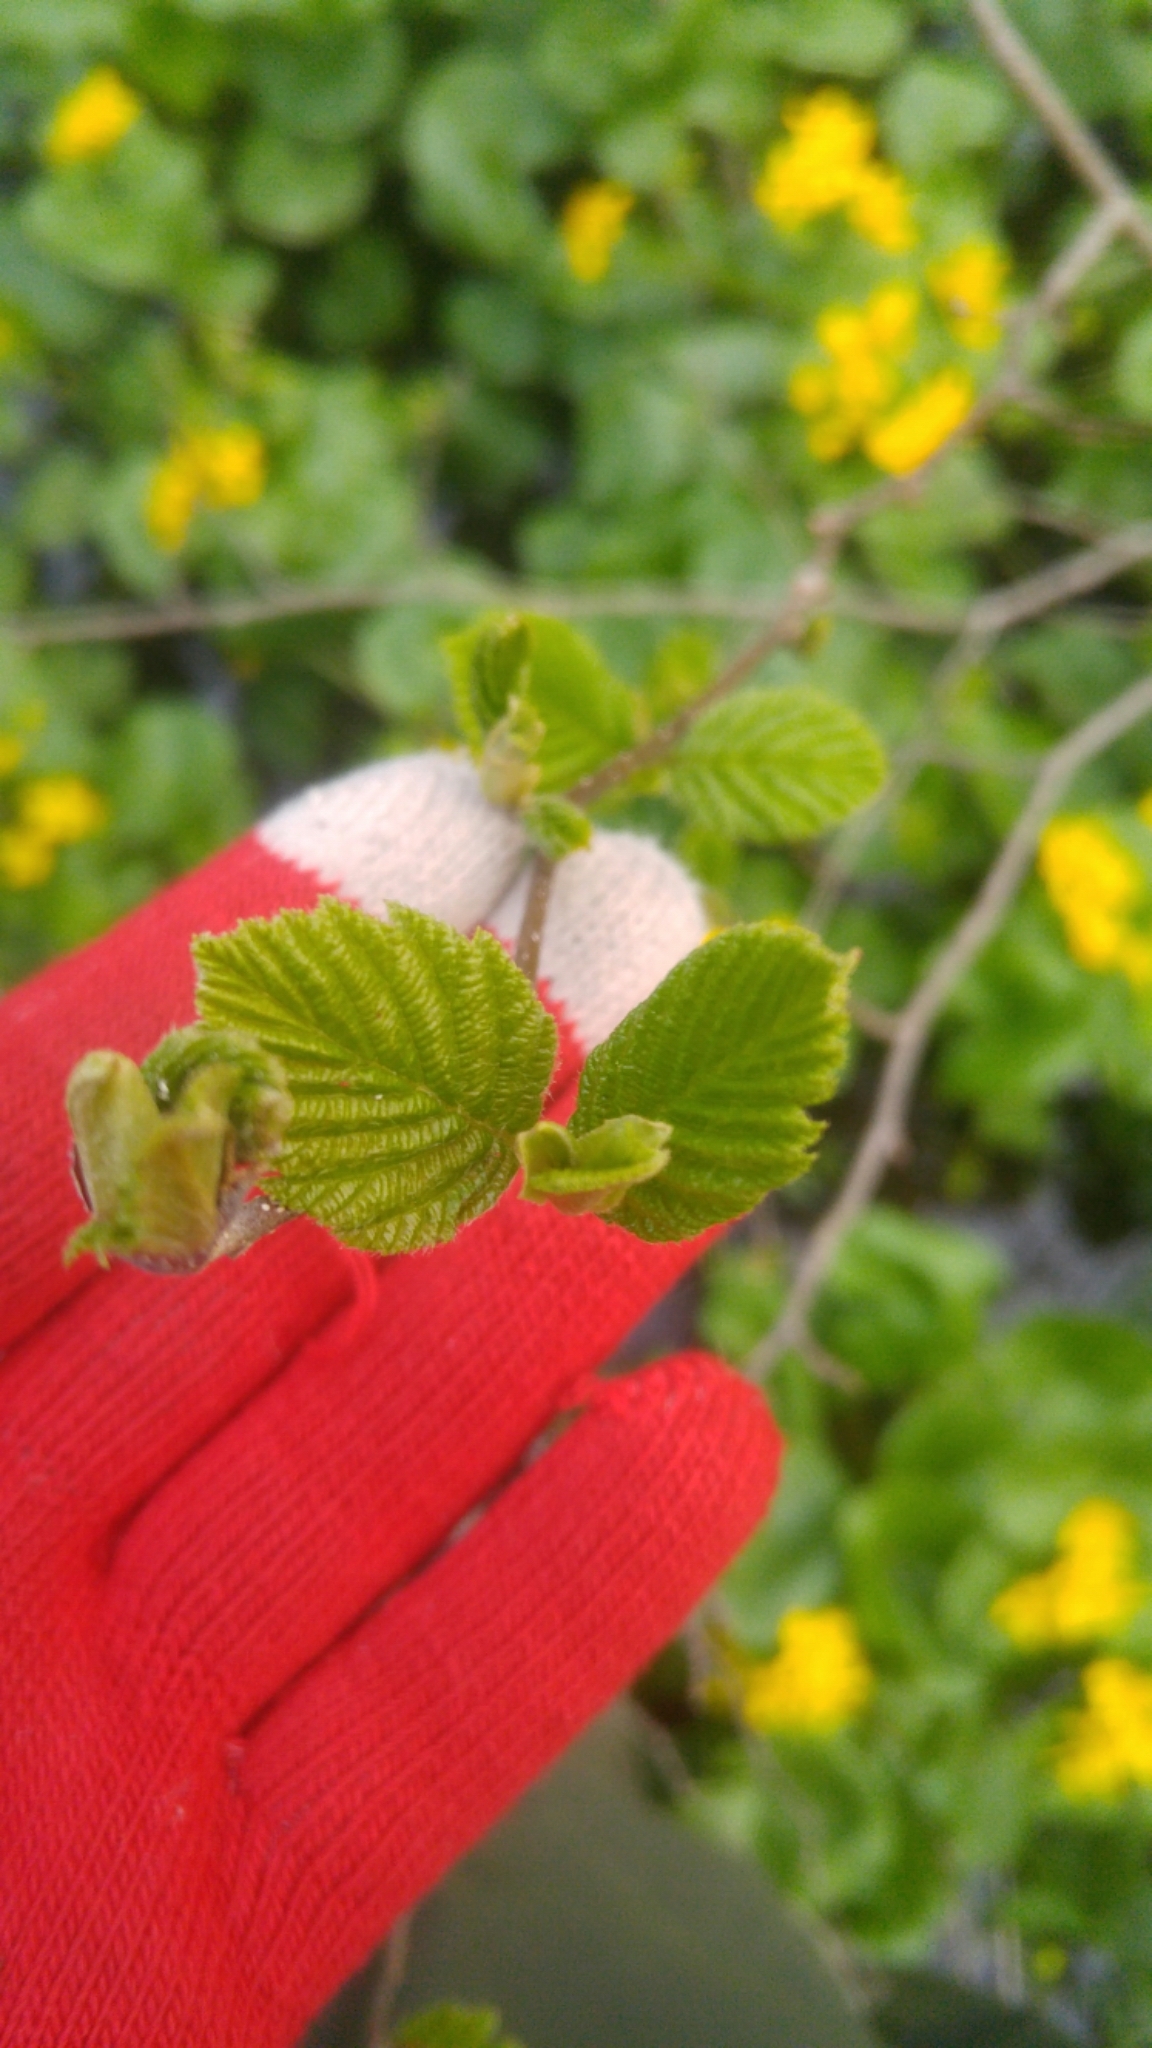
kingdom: Plantae
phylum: Tracheophyta
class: Magnoliopsida
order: Fagales
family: Betulaceae
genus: Alnus
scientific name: Alnus incana
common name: Grey alder
